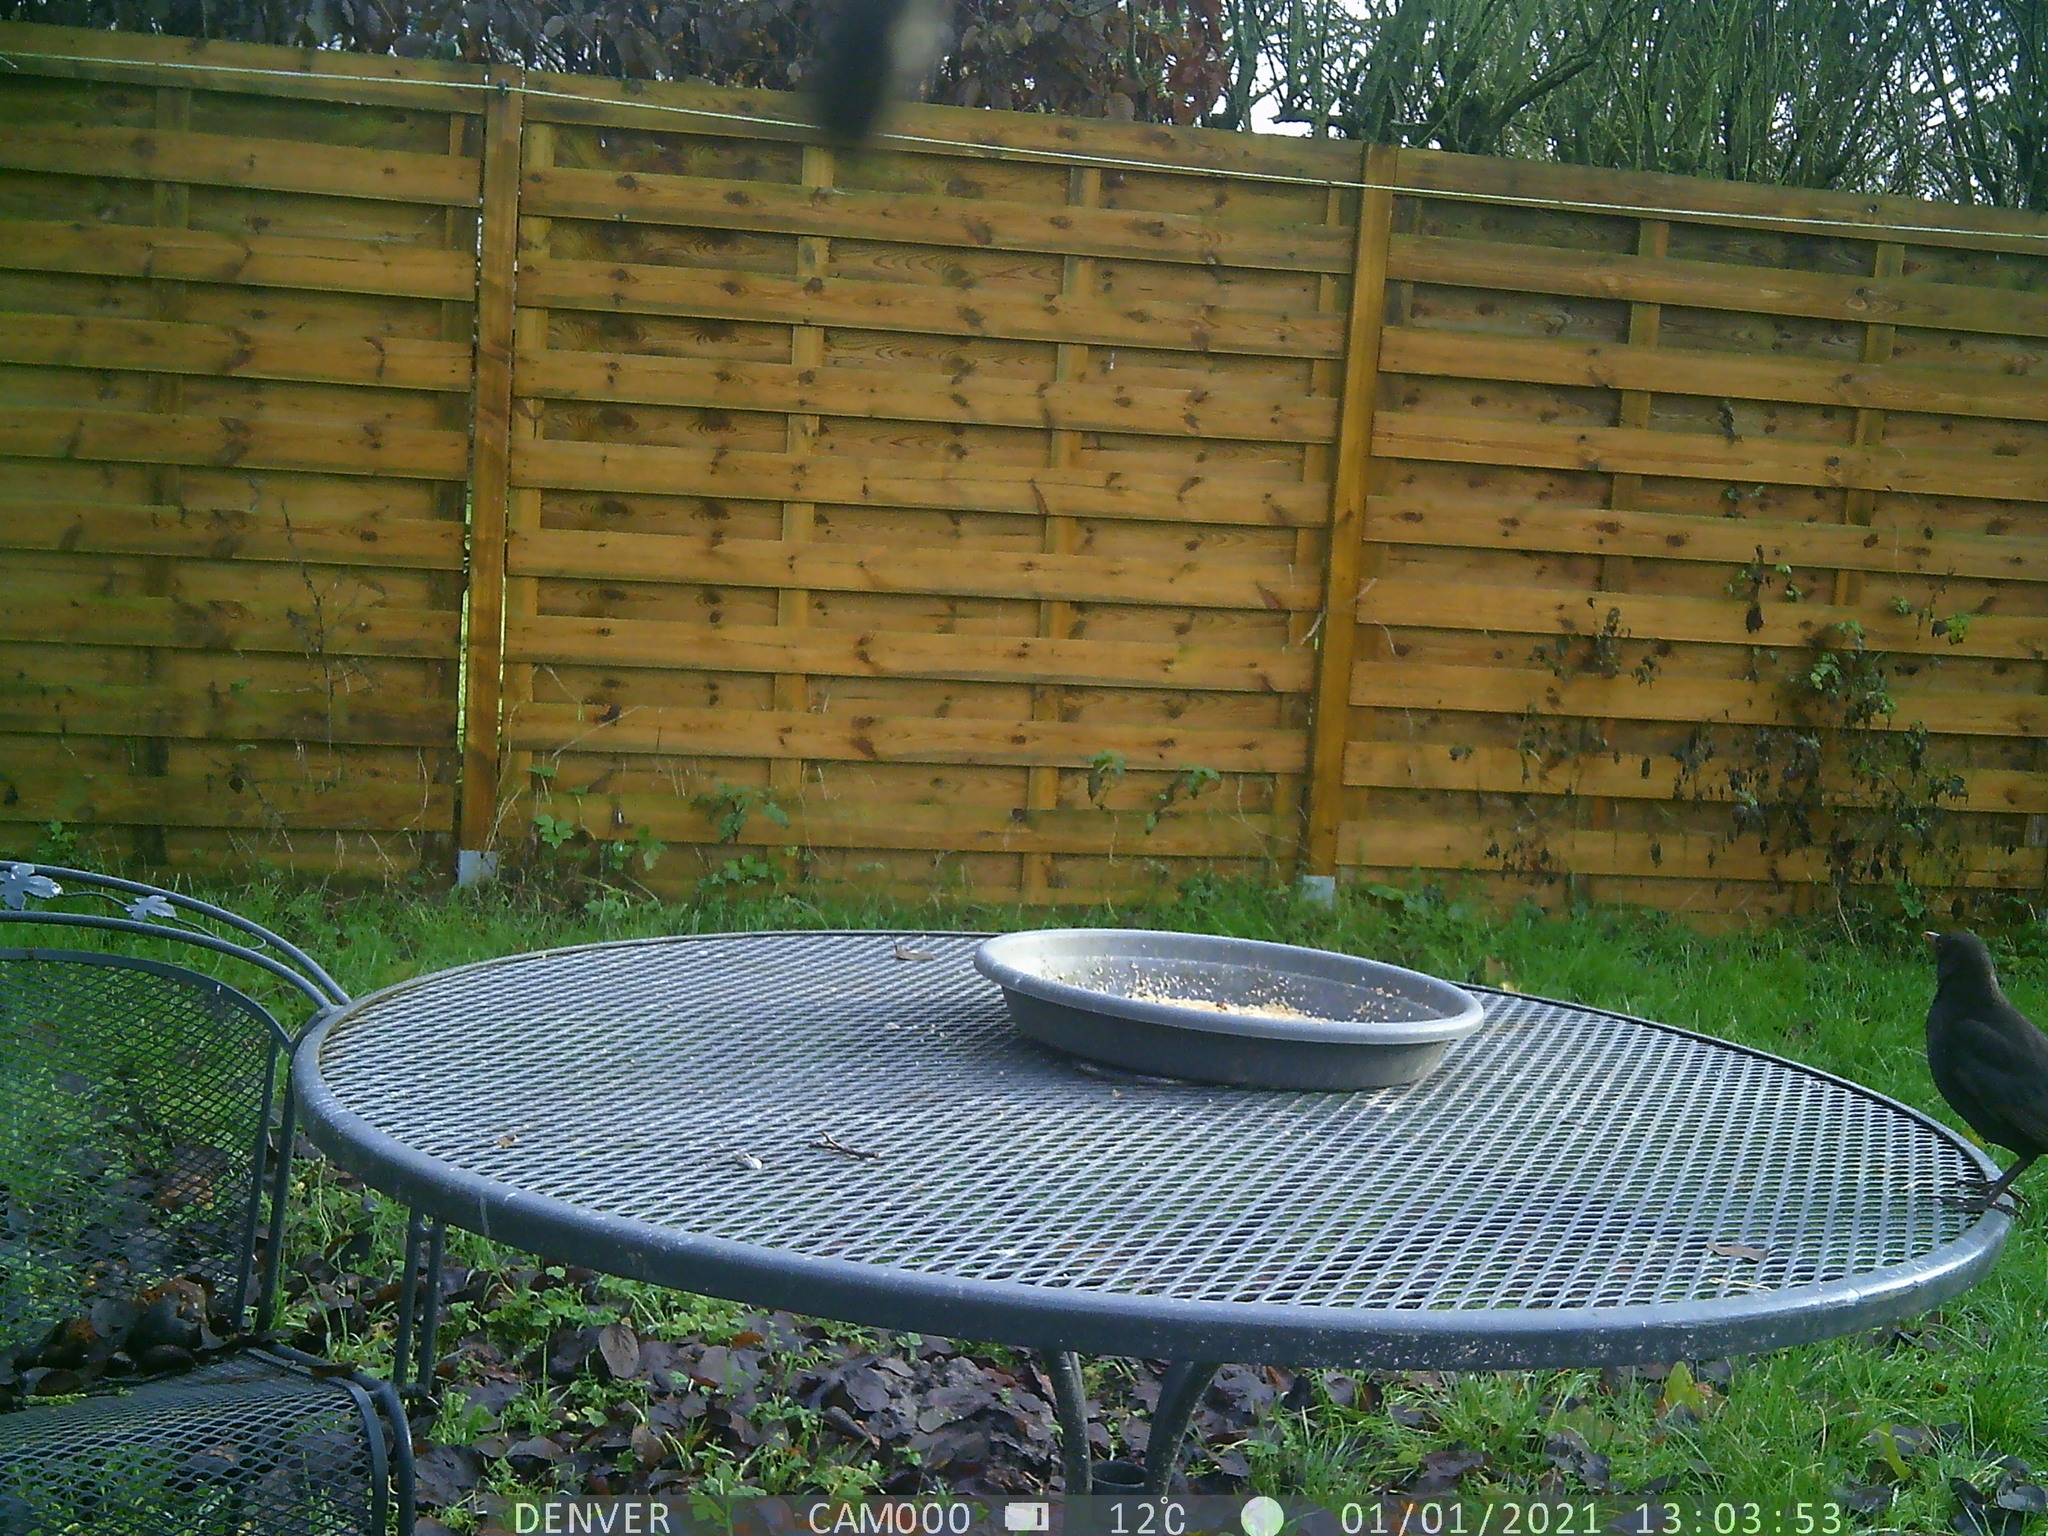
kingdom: Animalia
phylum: Chordata
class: Aves
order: Passeriformes
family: Turdidae
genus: Turdus
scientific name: Turdus merula
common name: Common blackbird
